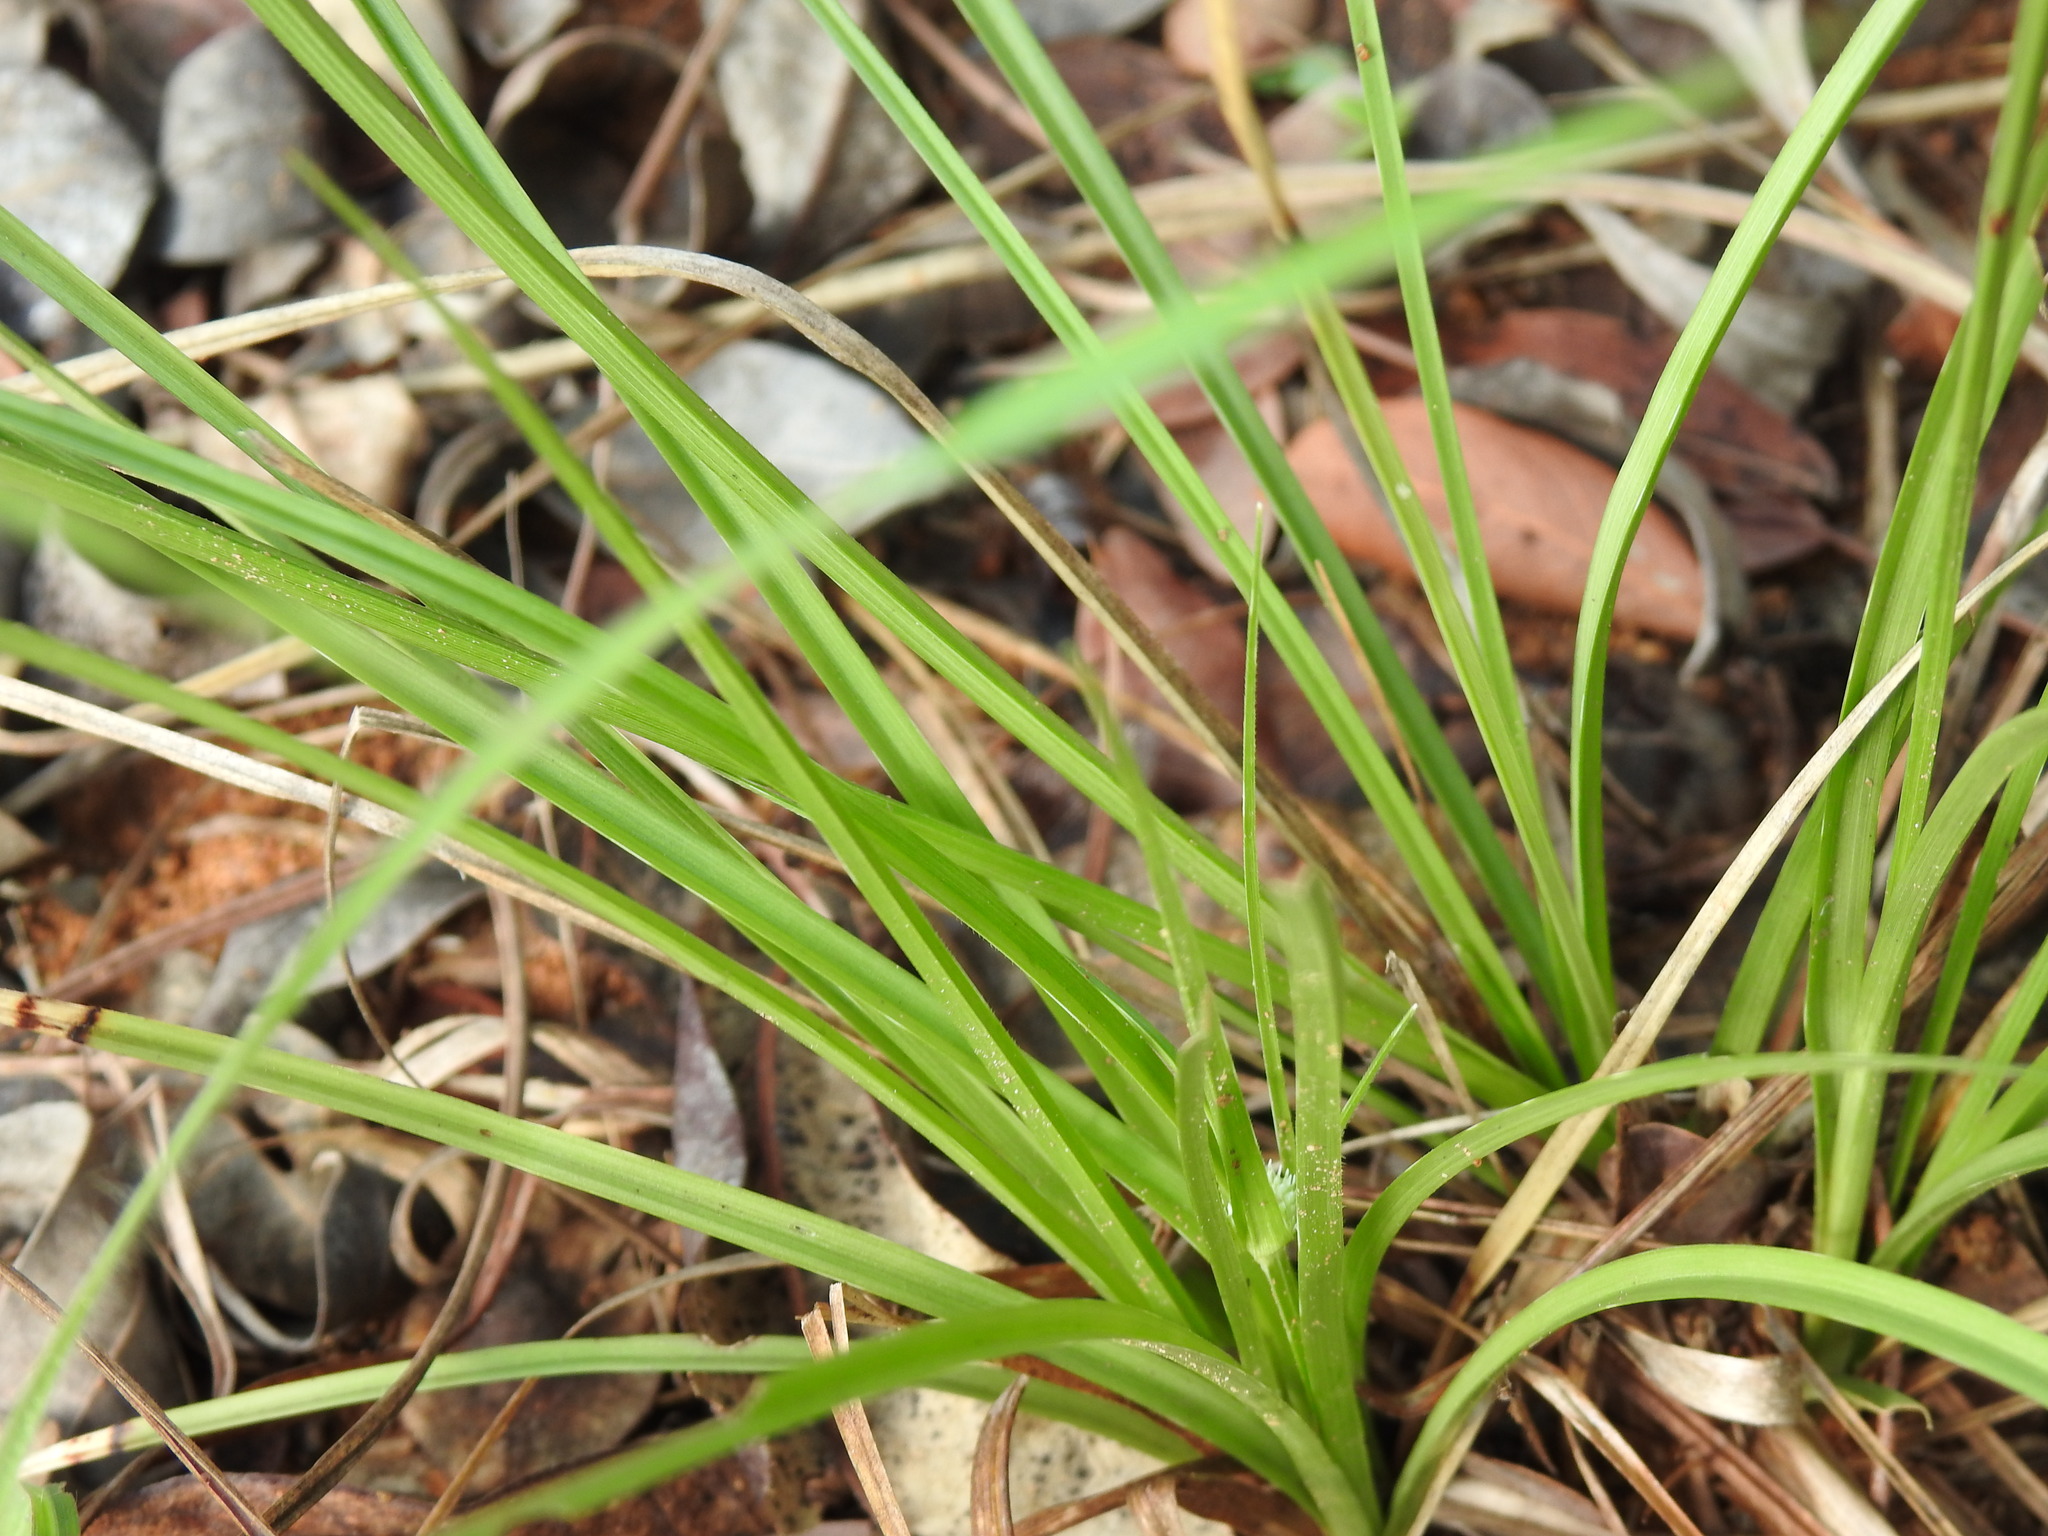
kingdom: Plantae
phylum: Tracheophyta
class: Liliopsida
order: Poales
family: Cyperaceae
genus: Cyperus
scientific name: Cyperus alatus
